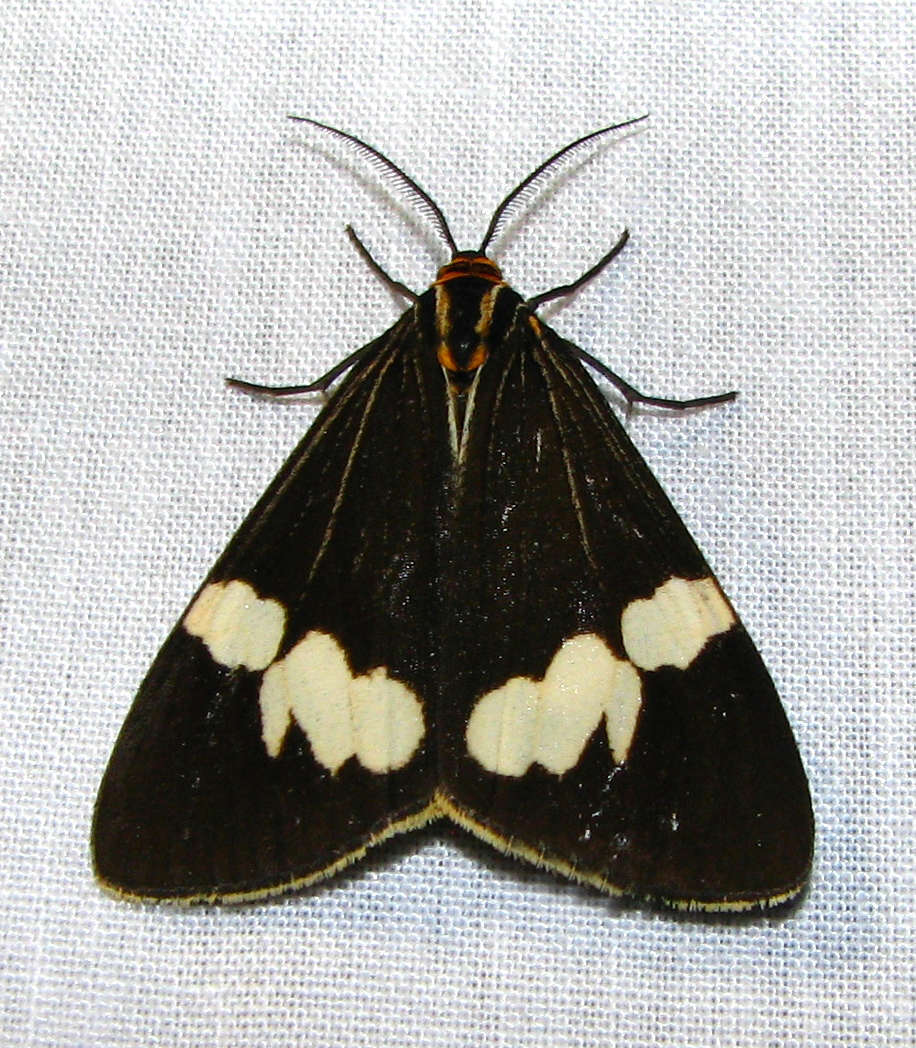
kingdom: Animalia
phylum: Arthropoda
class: Insecta
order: Lepidoptera
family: Erebidae
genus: Nyctemera
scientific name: Nyctemera amicus
